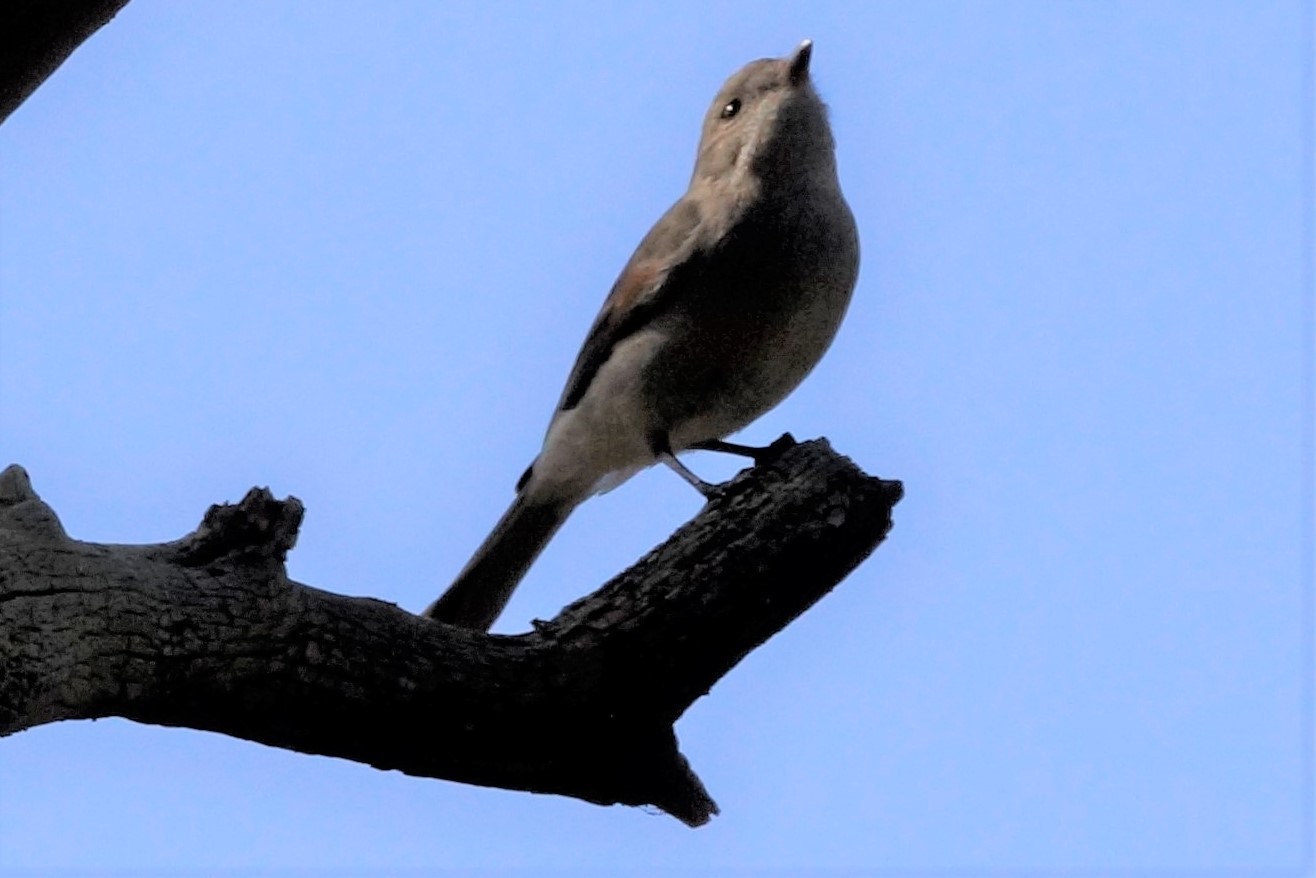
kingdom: Animalia
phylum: Chordata
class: Aves
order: Passeriformes
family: Pachycephalidae
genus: Pachycephala
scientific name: Pachycephala pectoralis
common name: Australian golden whistler
